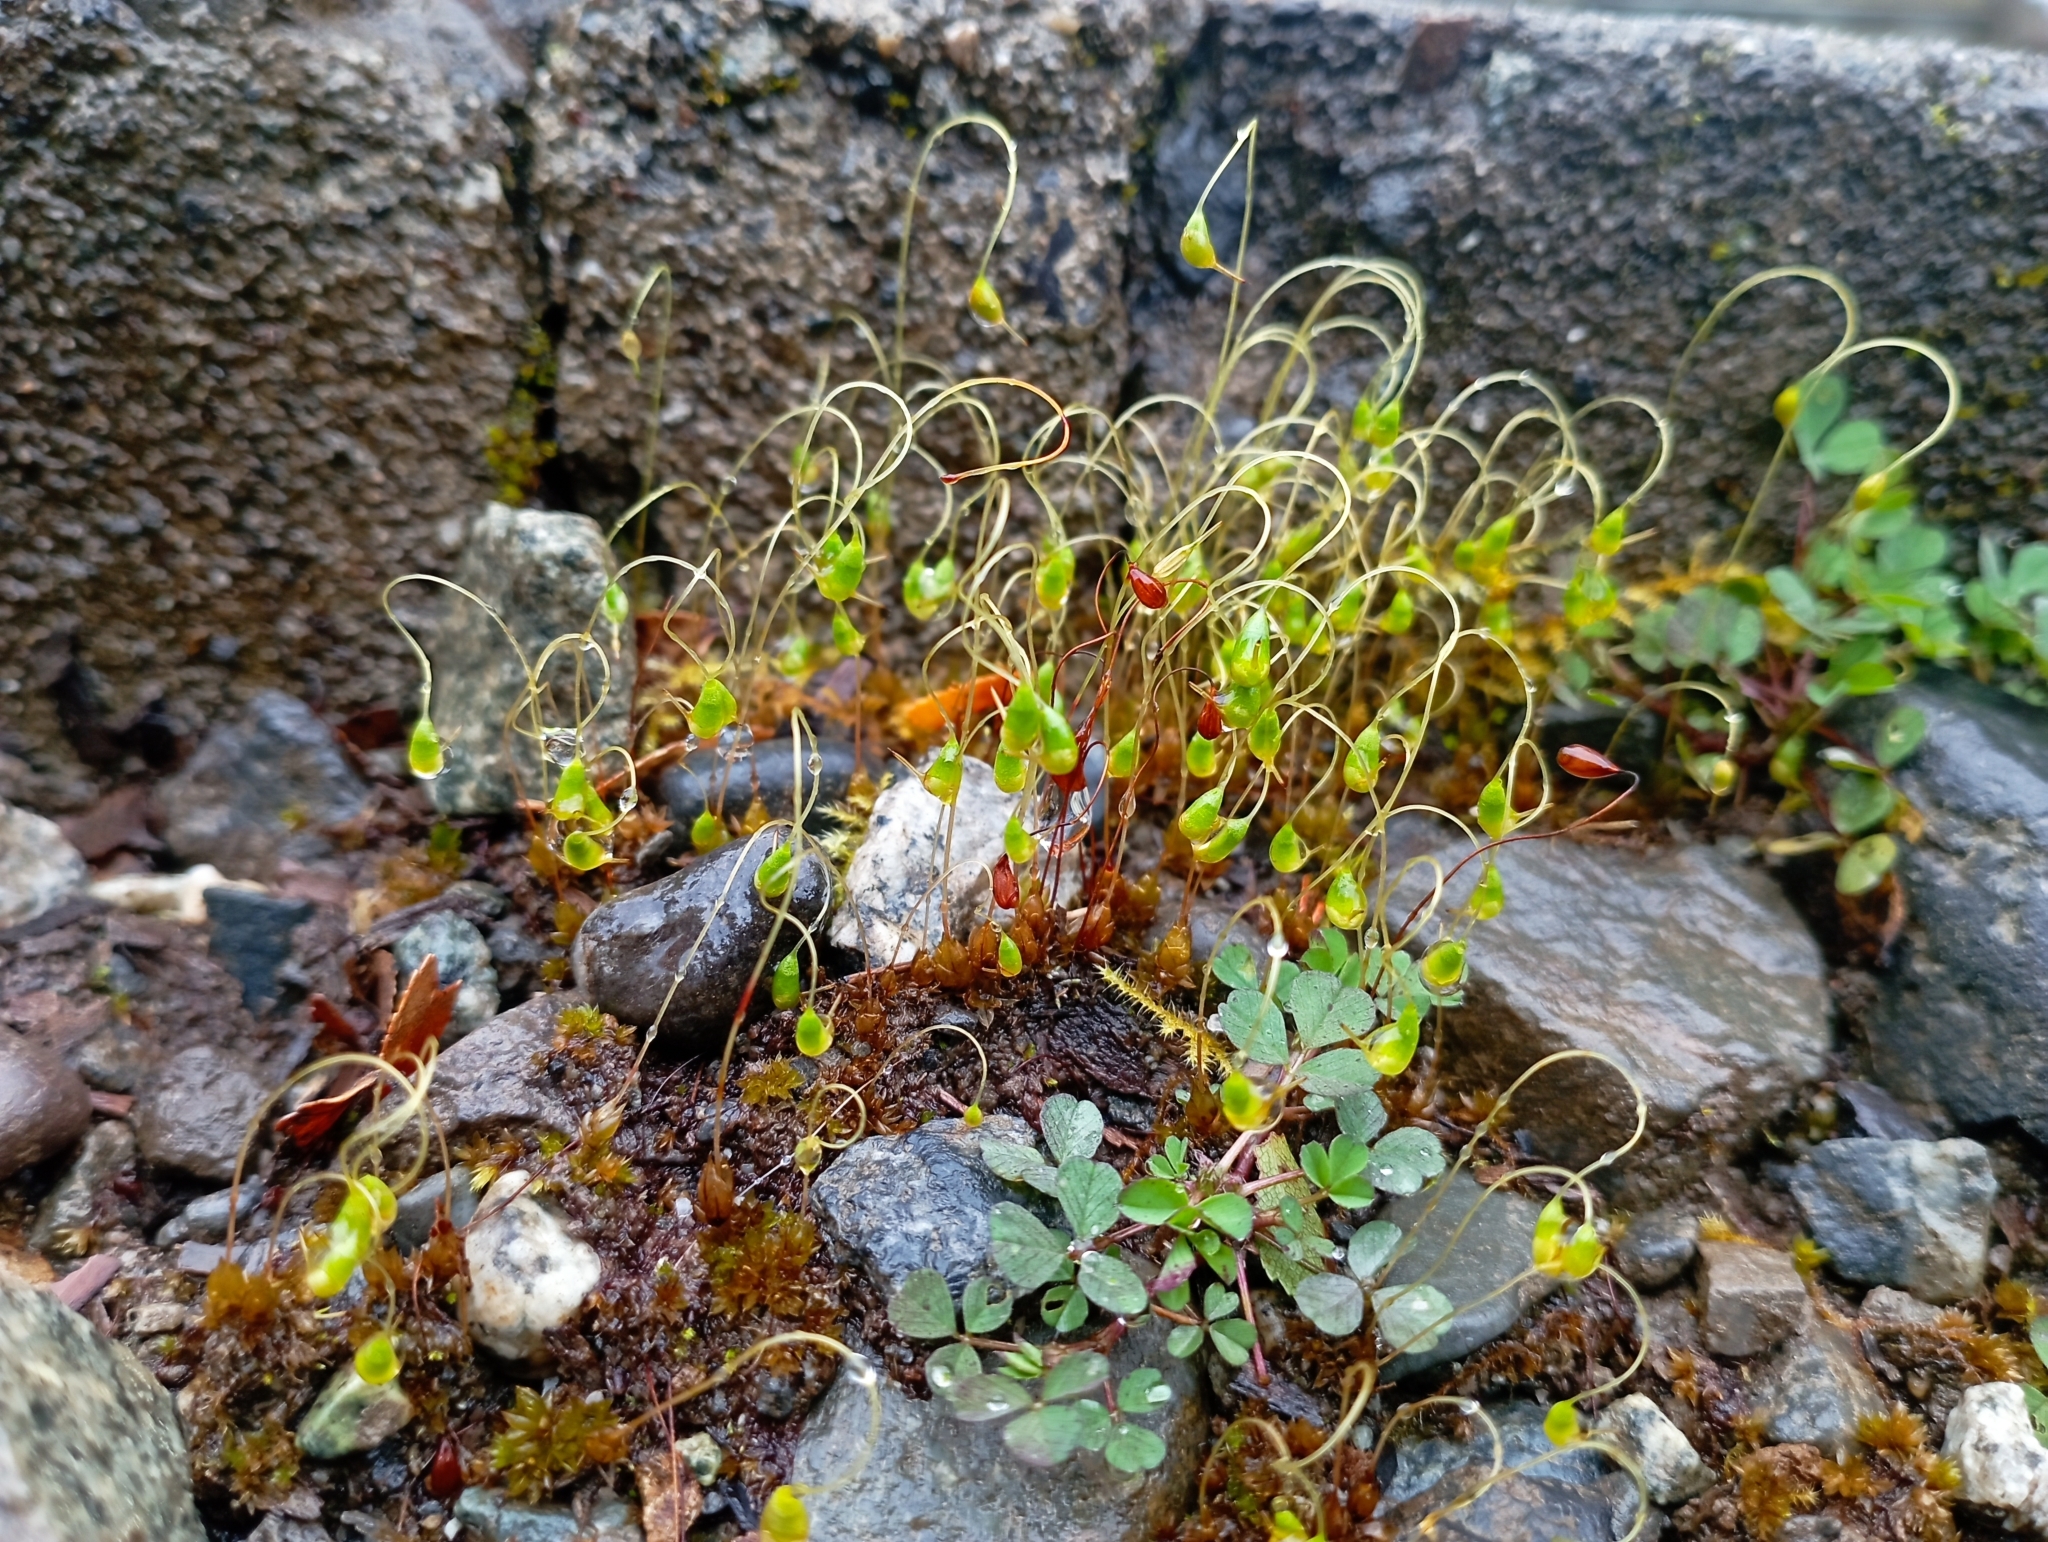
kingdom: Plantae
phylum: Bryophyta
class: Bryopsida
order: Funariales
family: Funariaceae
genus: Funaria
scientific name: Funaria hygrometrica
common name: Common cord moss
